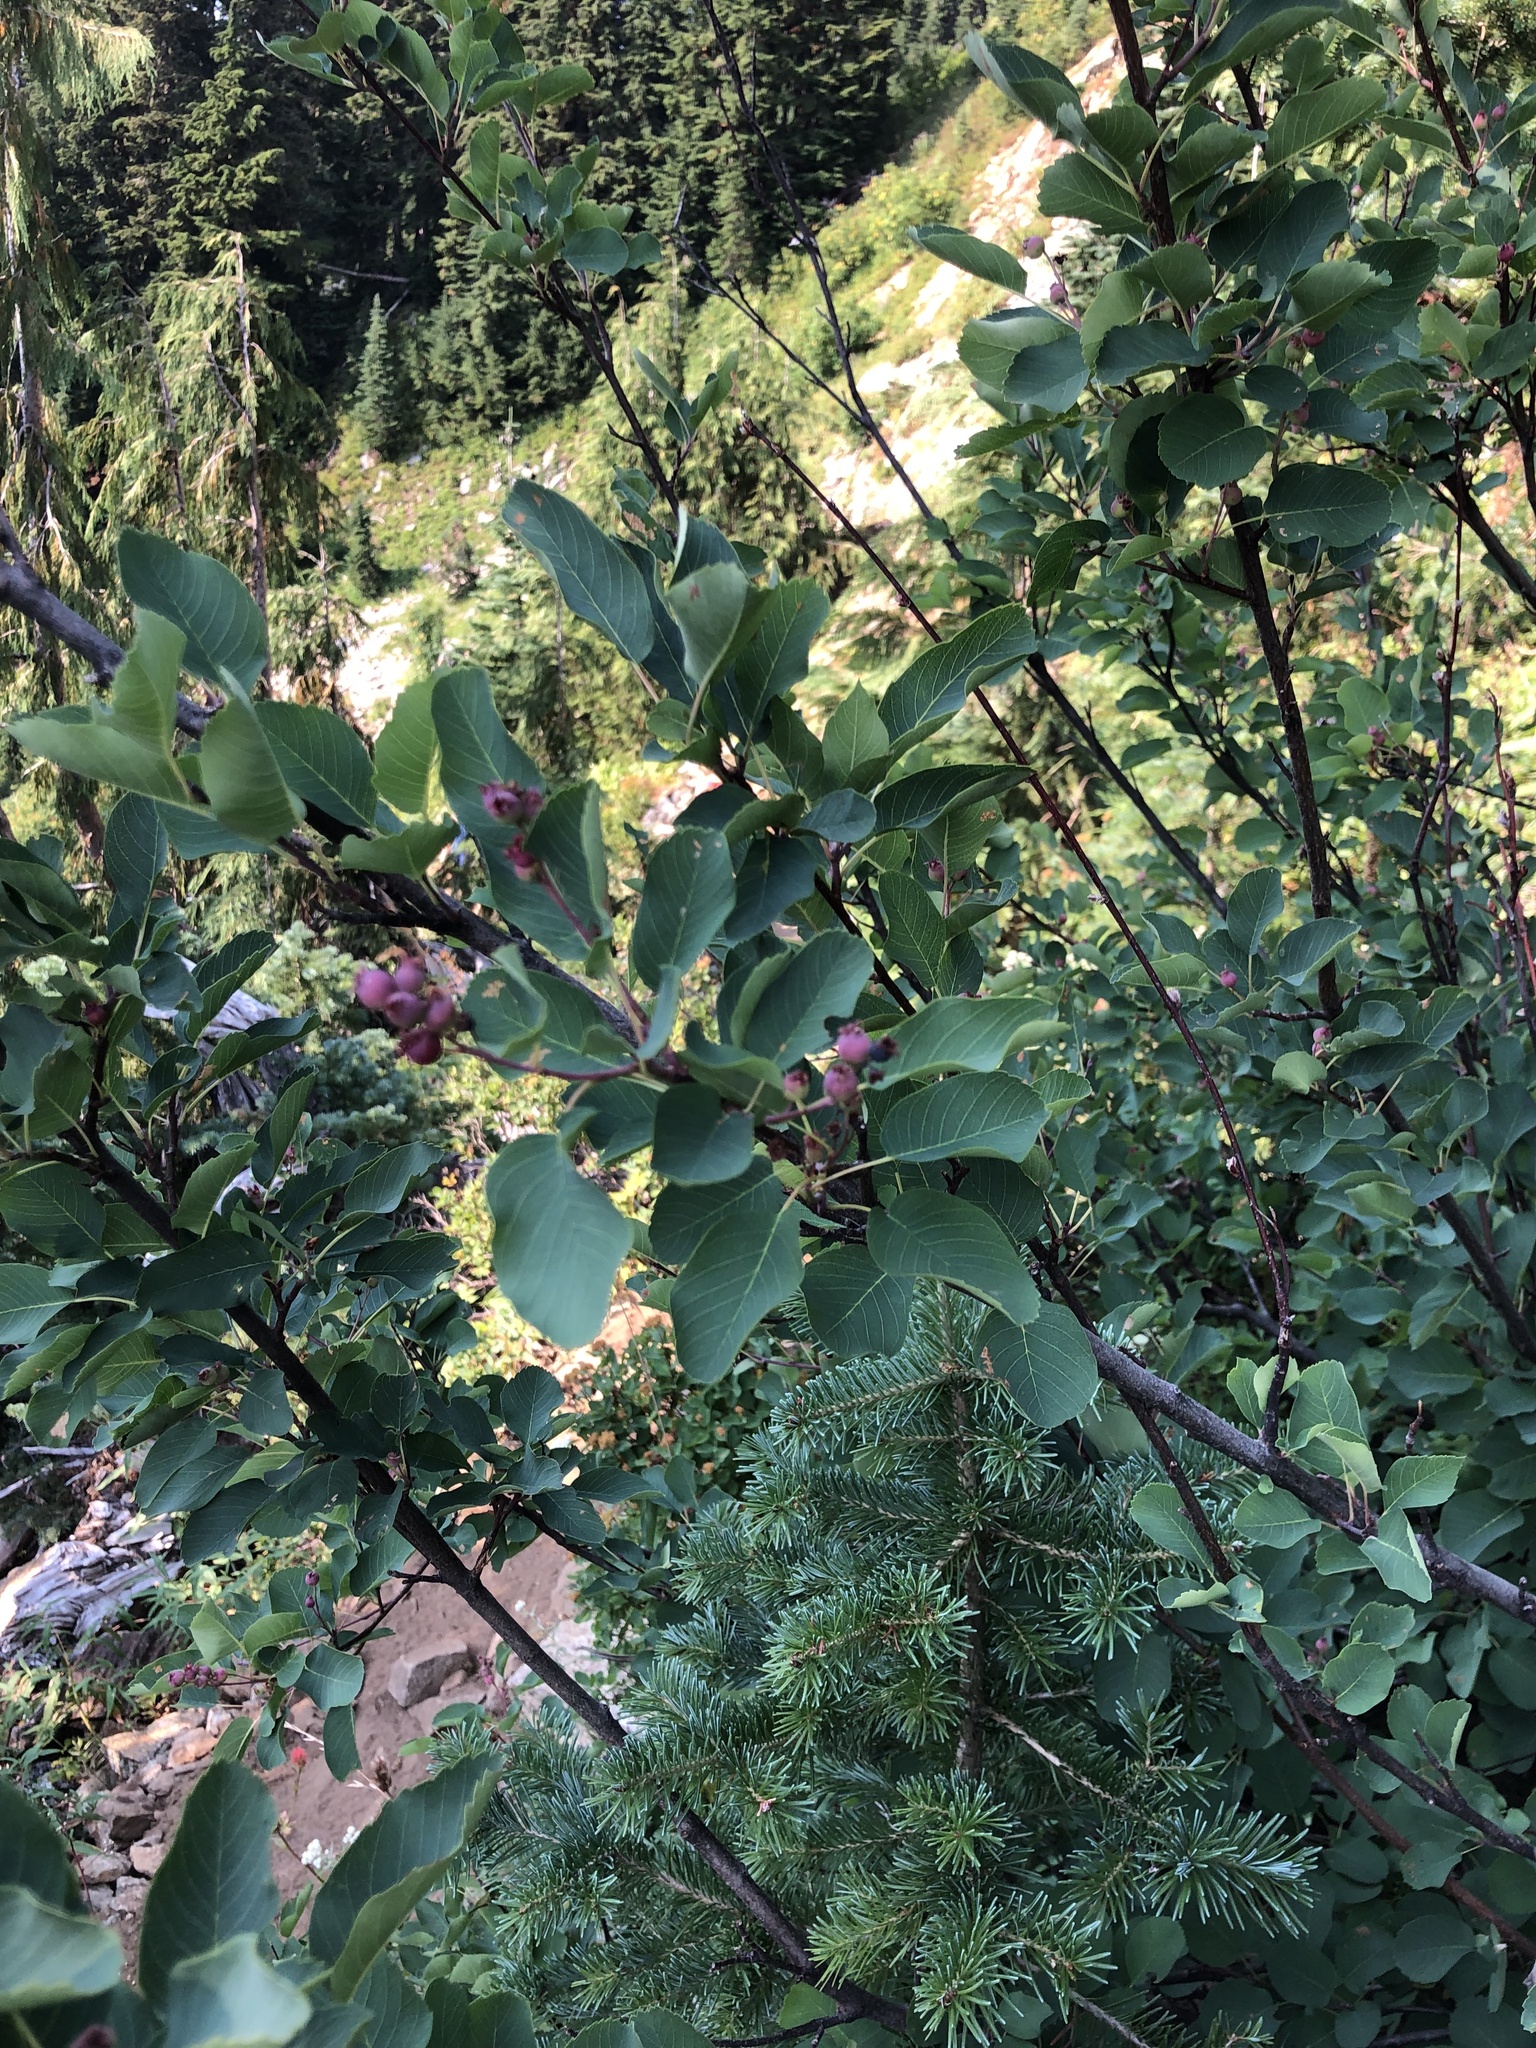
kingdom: Plantae
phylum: Tracheophyta
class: Magnoliopsida
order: Rosales
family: Rosaceae
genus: Amelanchier
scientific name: Amelanchier alnifolia
